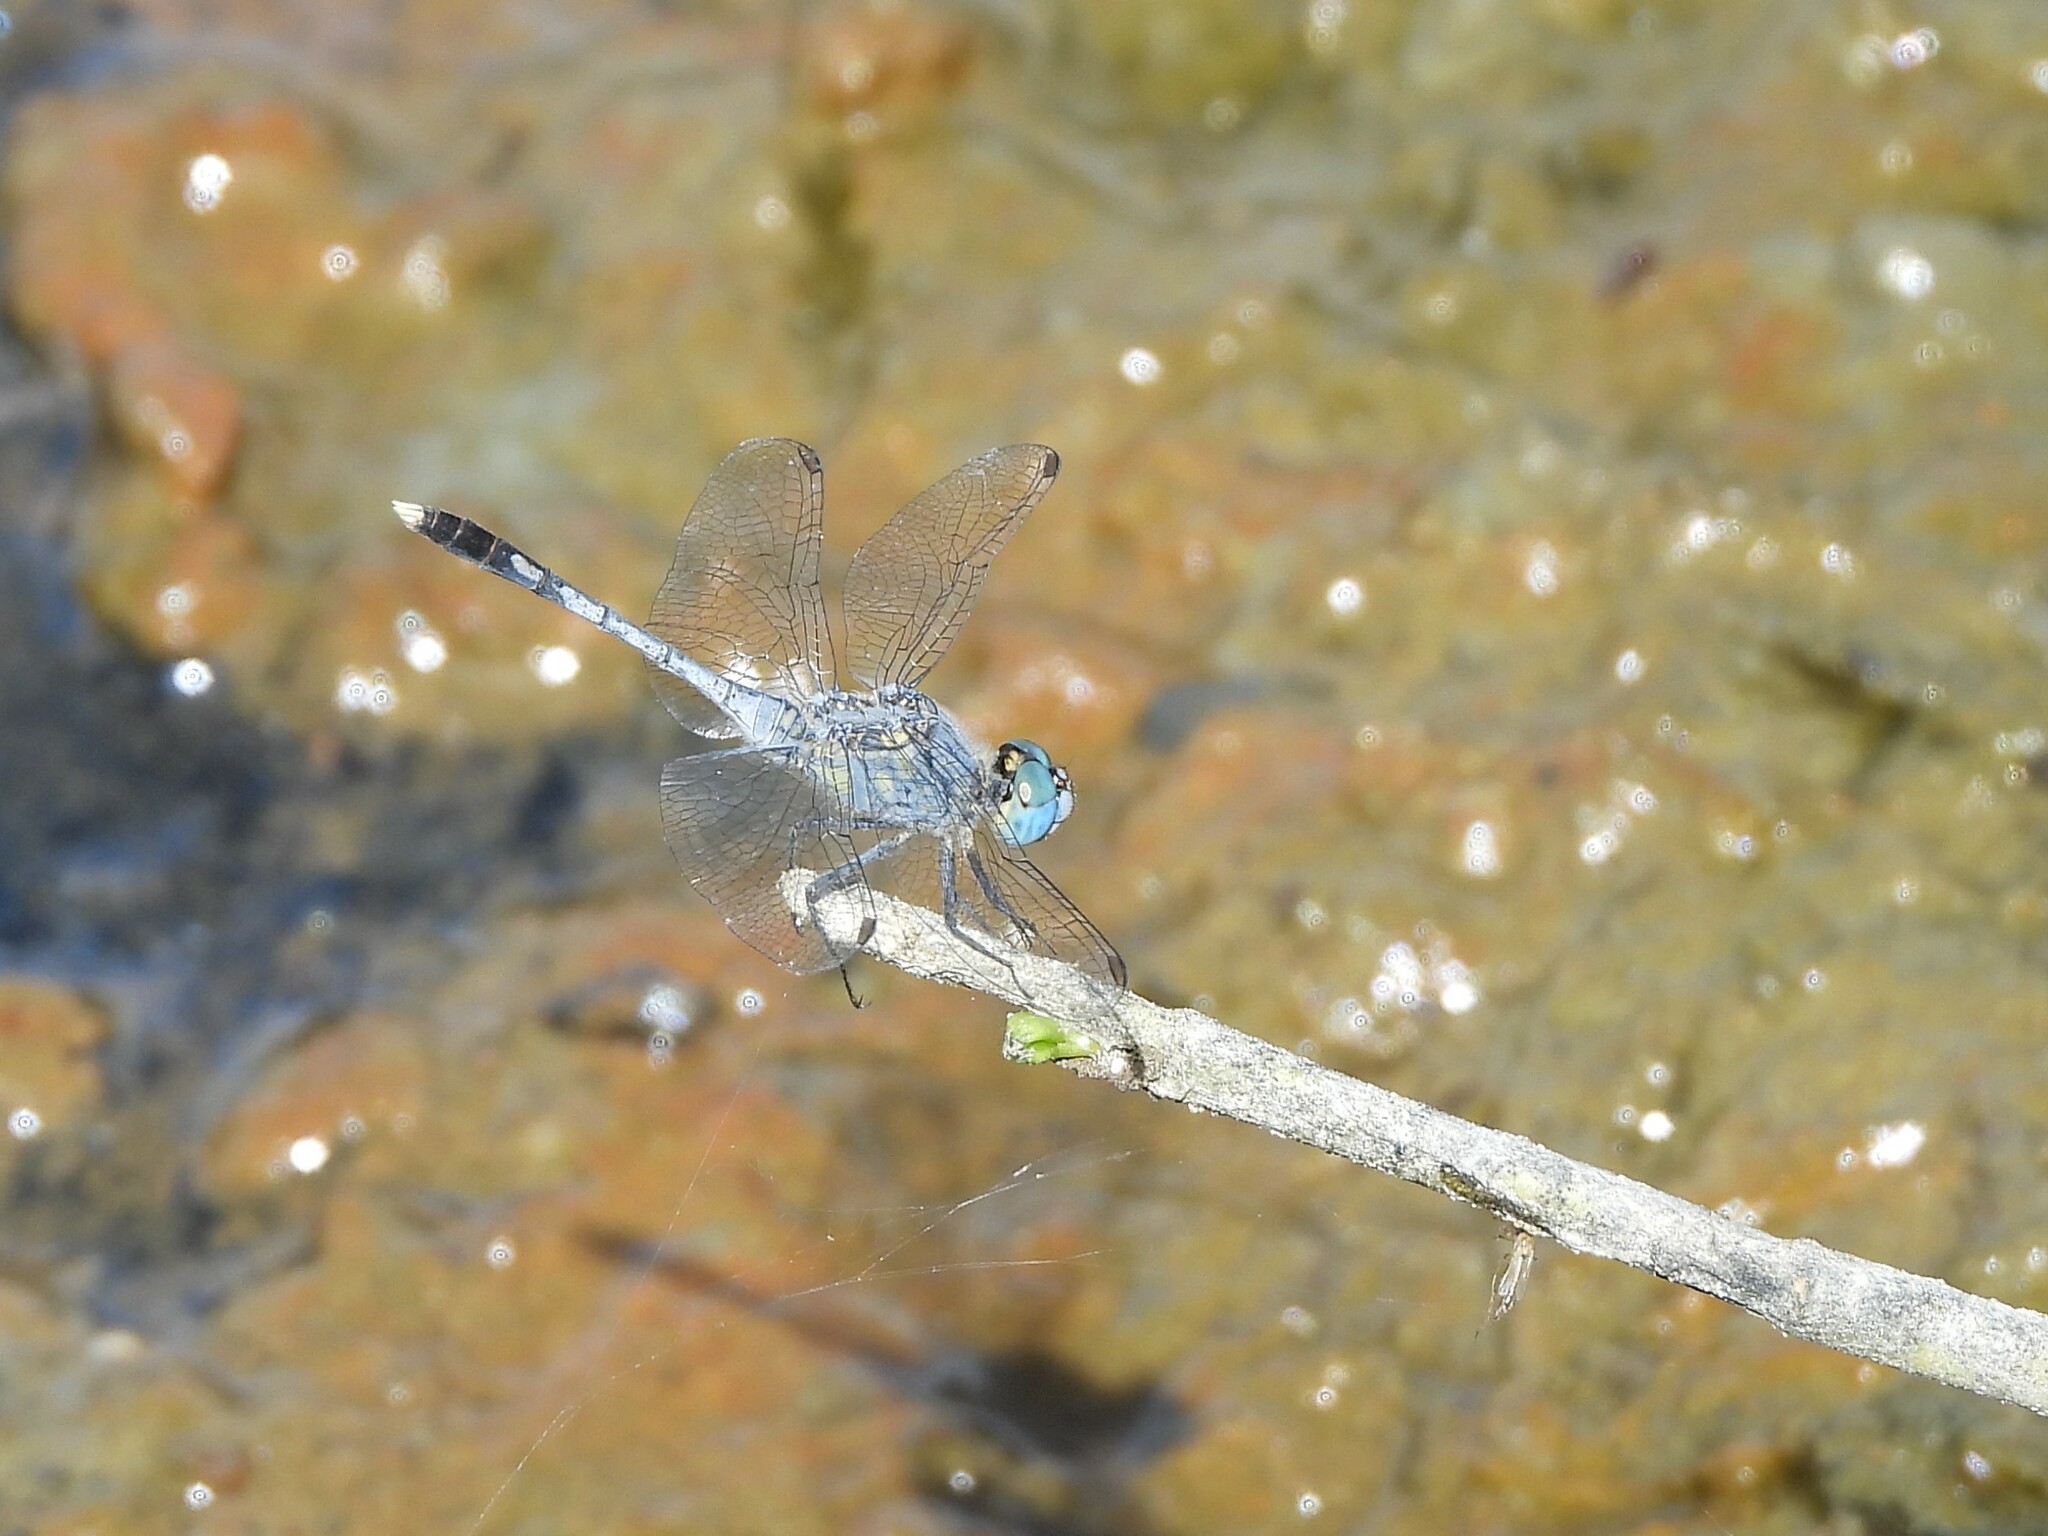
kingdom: Animalia
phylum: Arthropoda
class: Insecta
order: Odonata
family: Libellulidae
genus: Diplacodes
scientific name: Diplacodes trivialis
